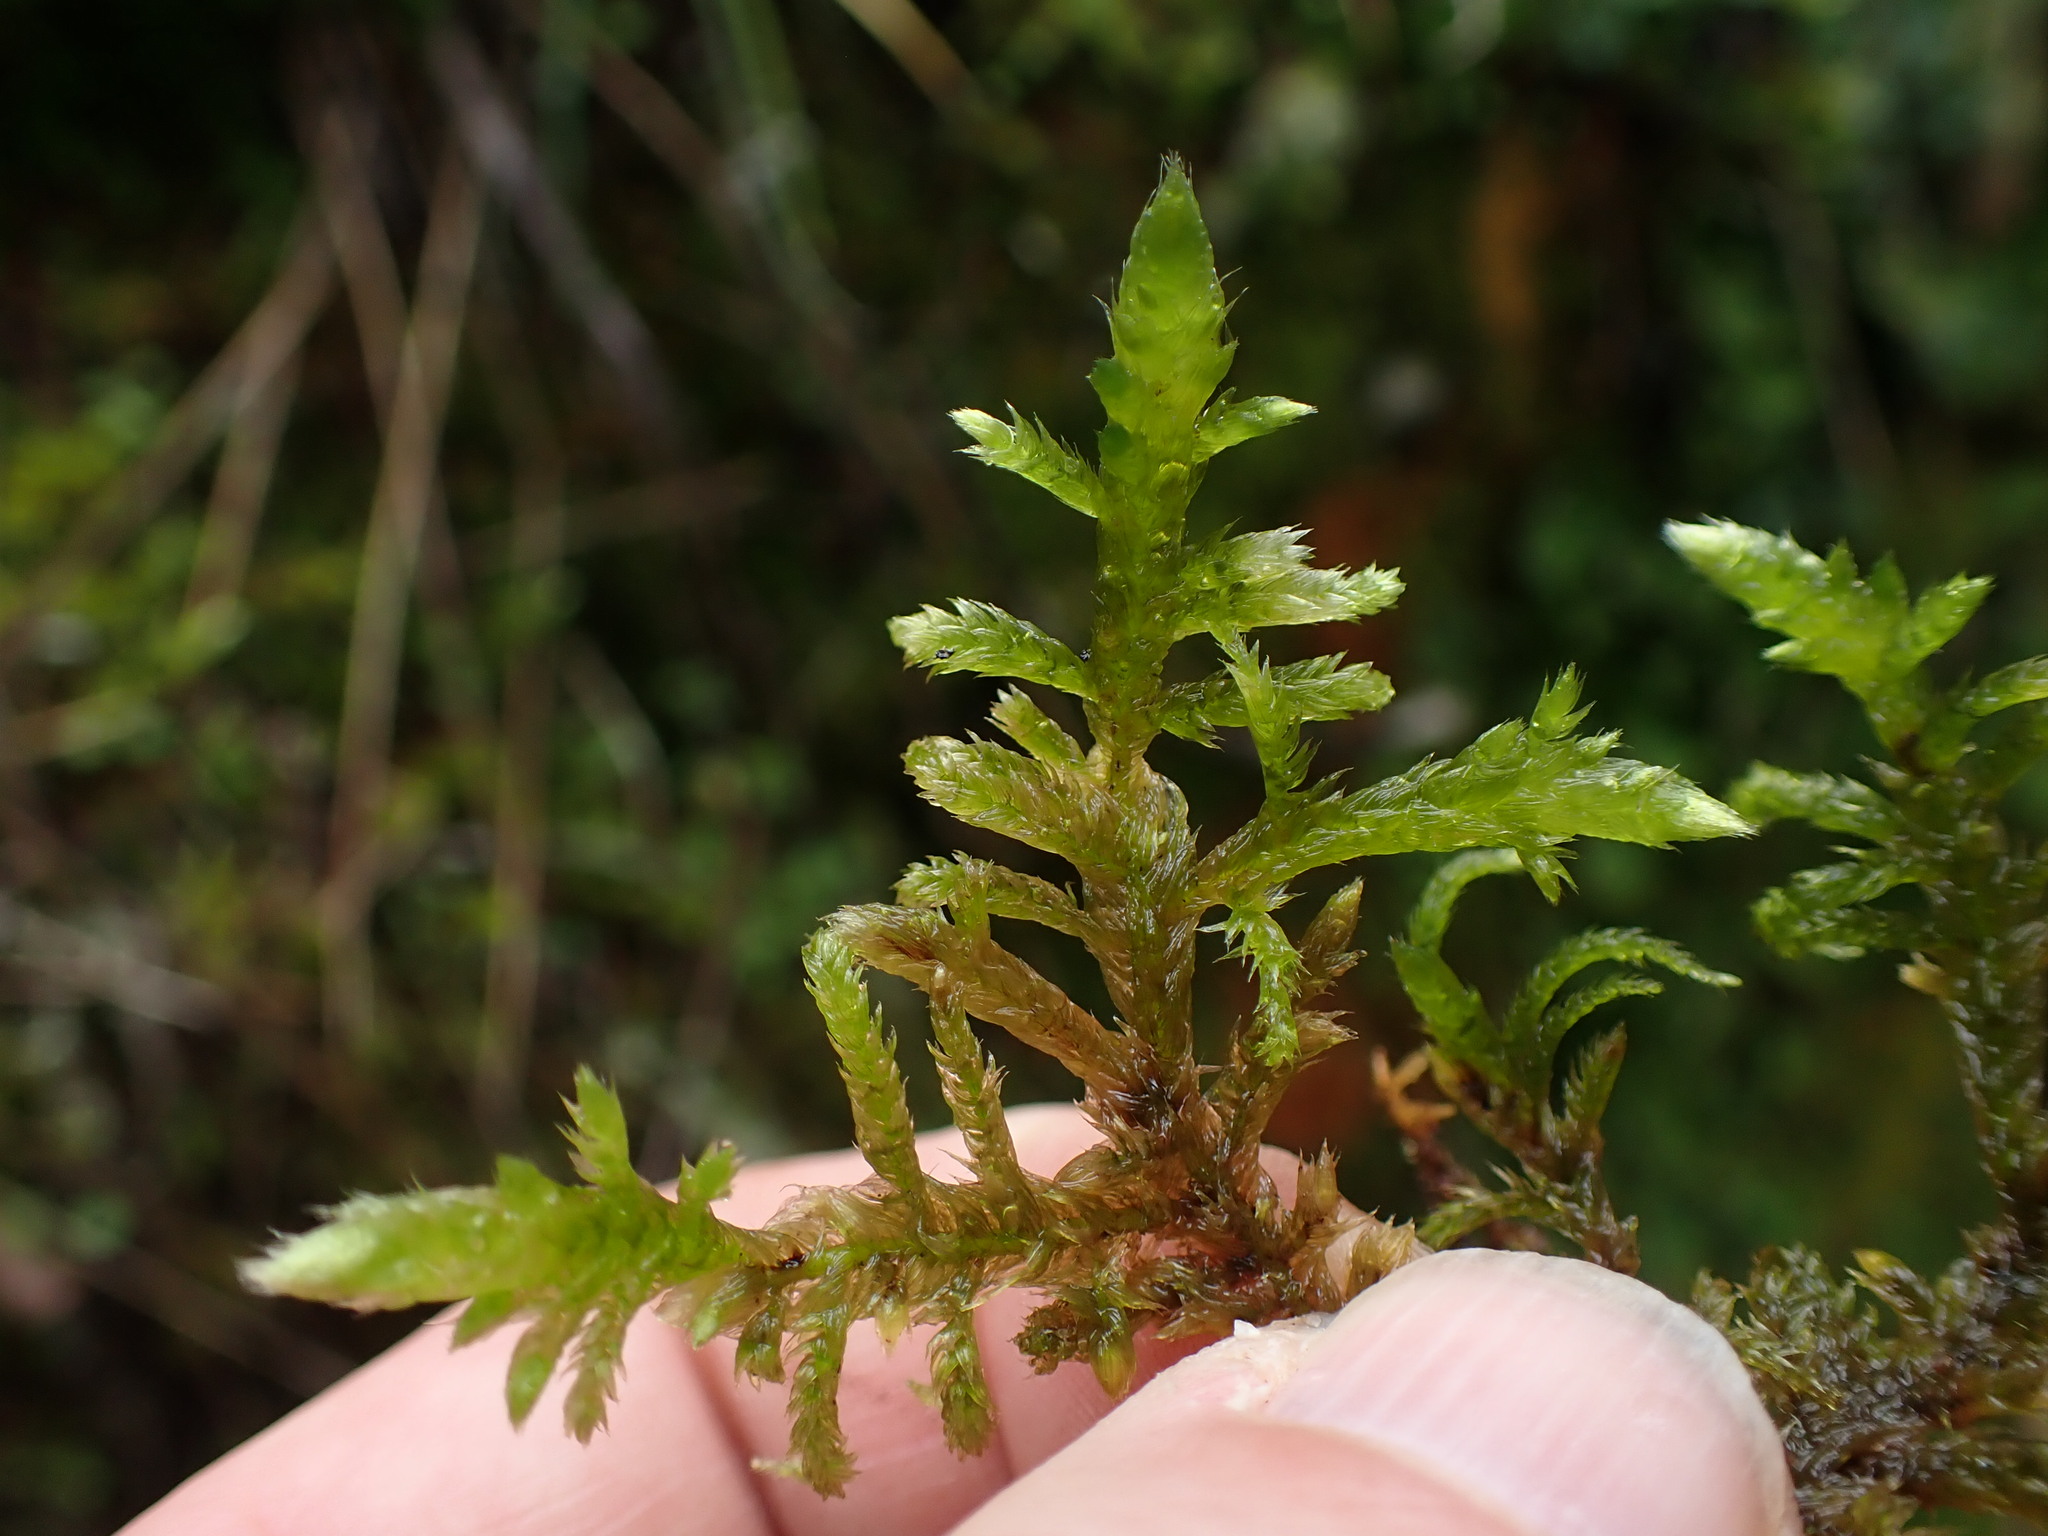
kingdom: Plantae
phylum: Bryophyta
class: Bryopsida
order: Hypnales
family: Brachytheciaceae
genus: Homalothecium
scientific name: Homalothecium megaptilum
